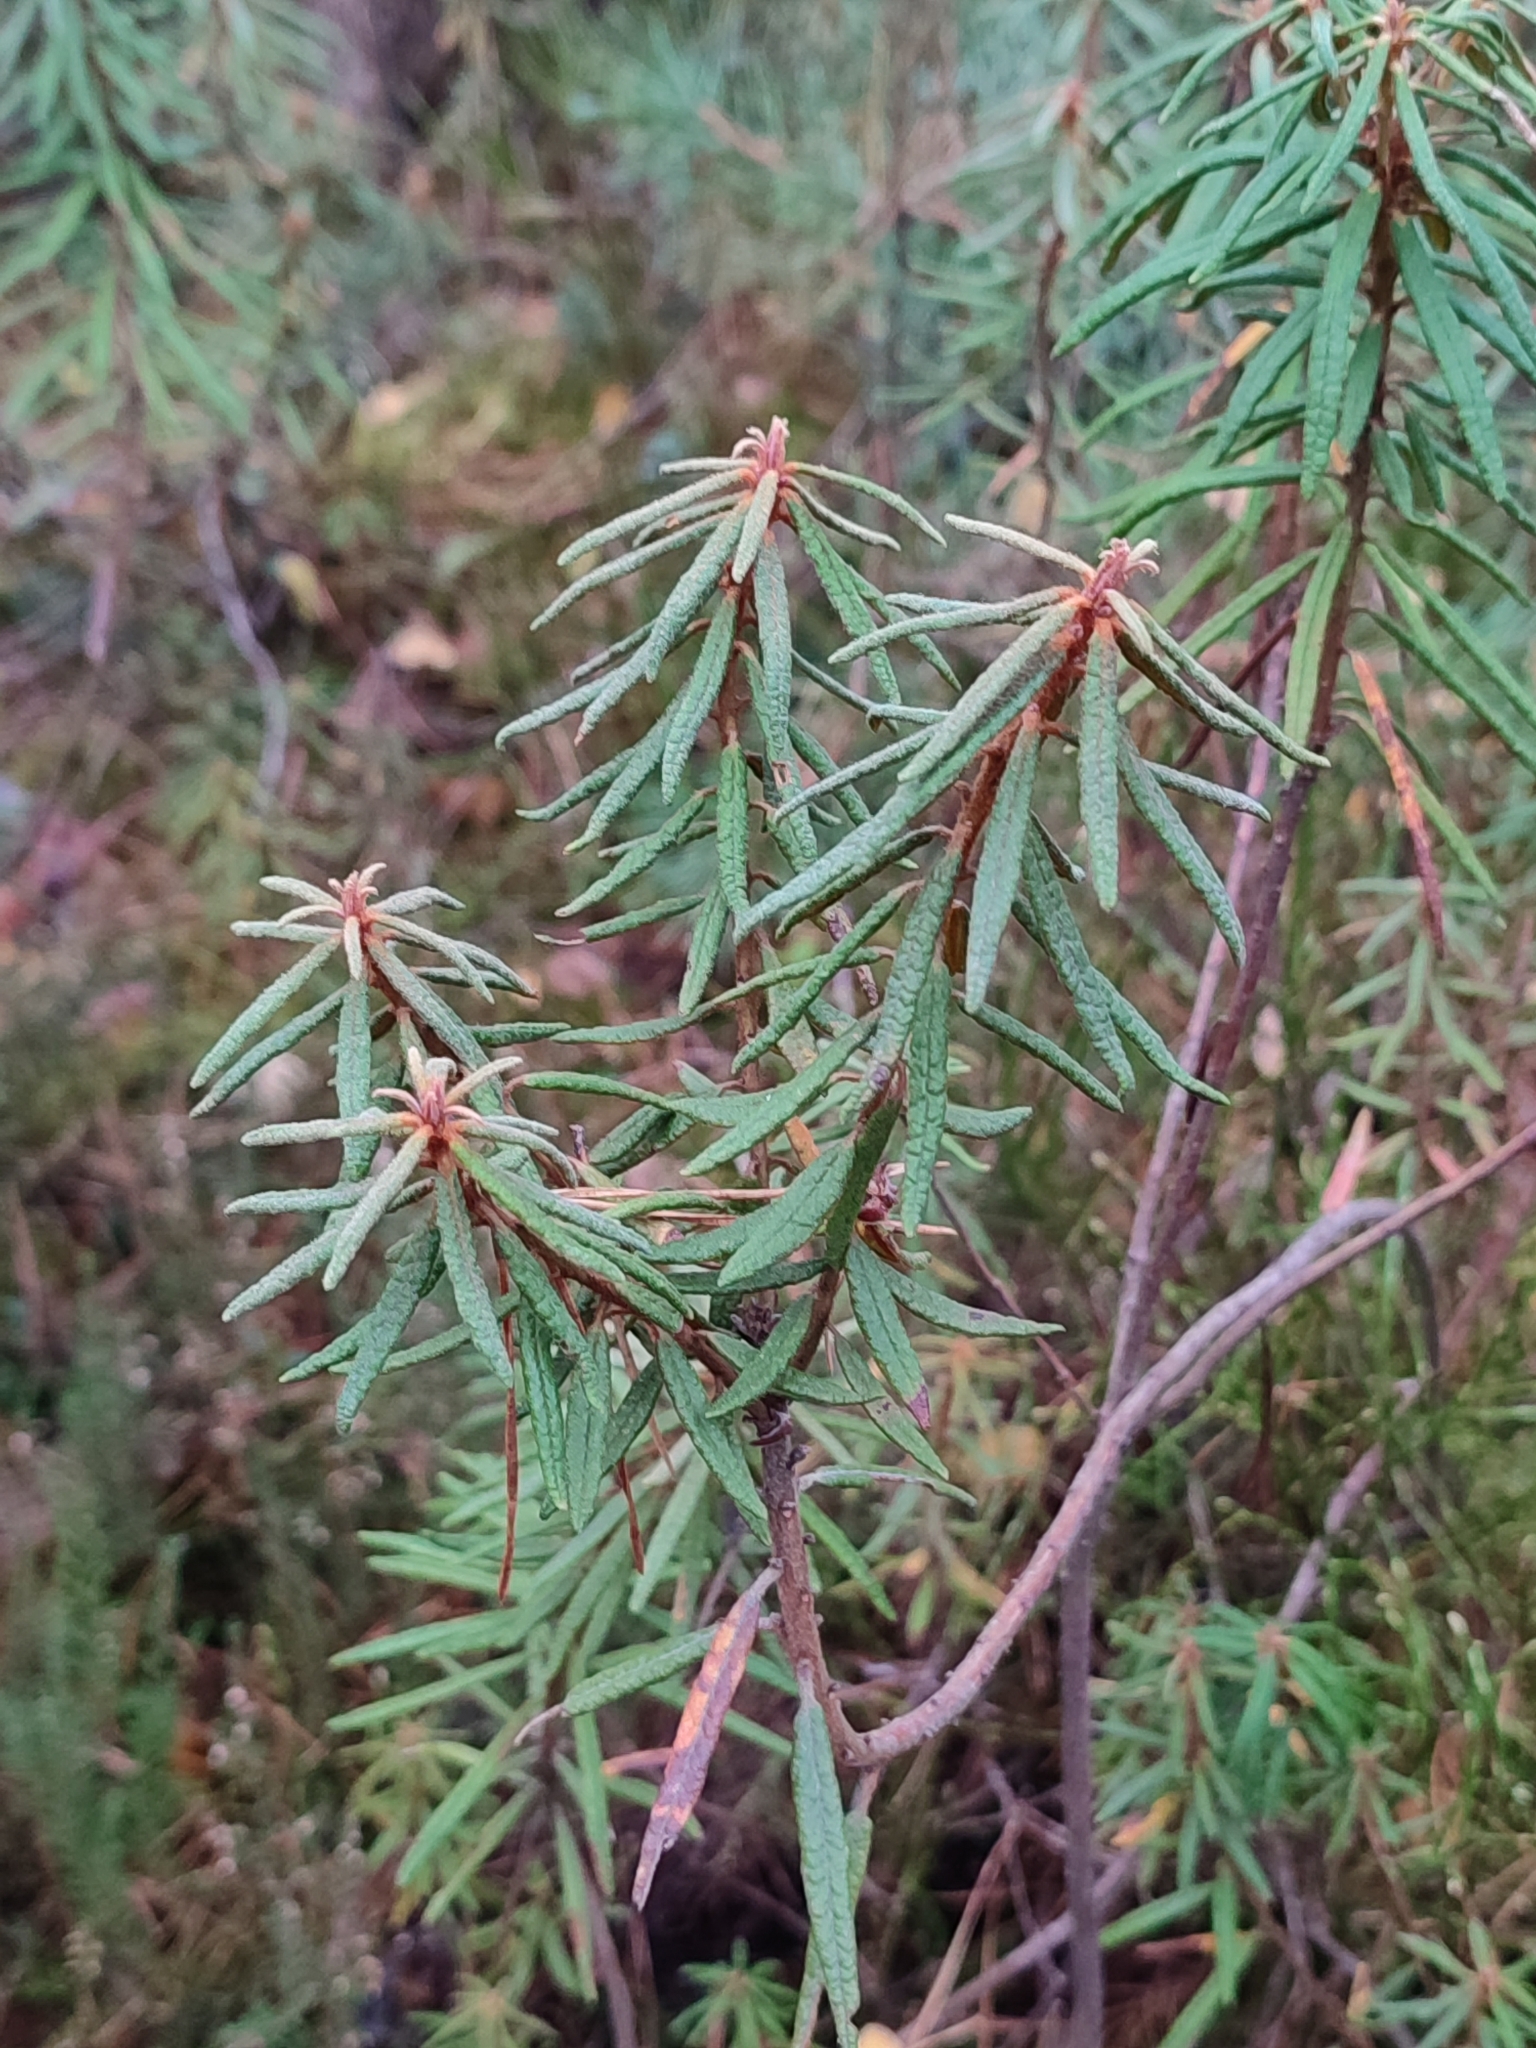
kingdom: Plantae
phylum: Tracheophyta
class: Magnoliopsida
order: Ericales
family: Ericaceae
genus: Rhododendron
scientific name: Rhododendron tomentosum
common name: Marsh labrador tea
